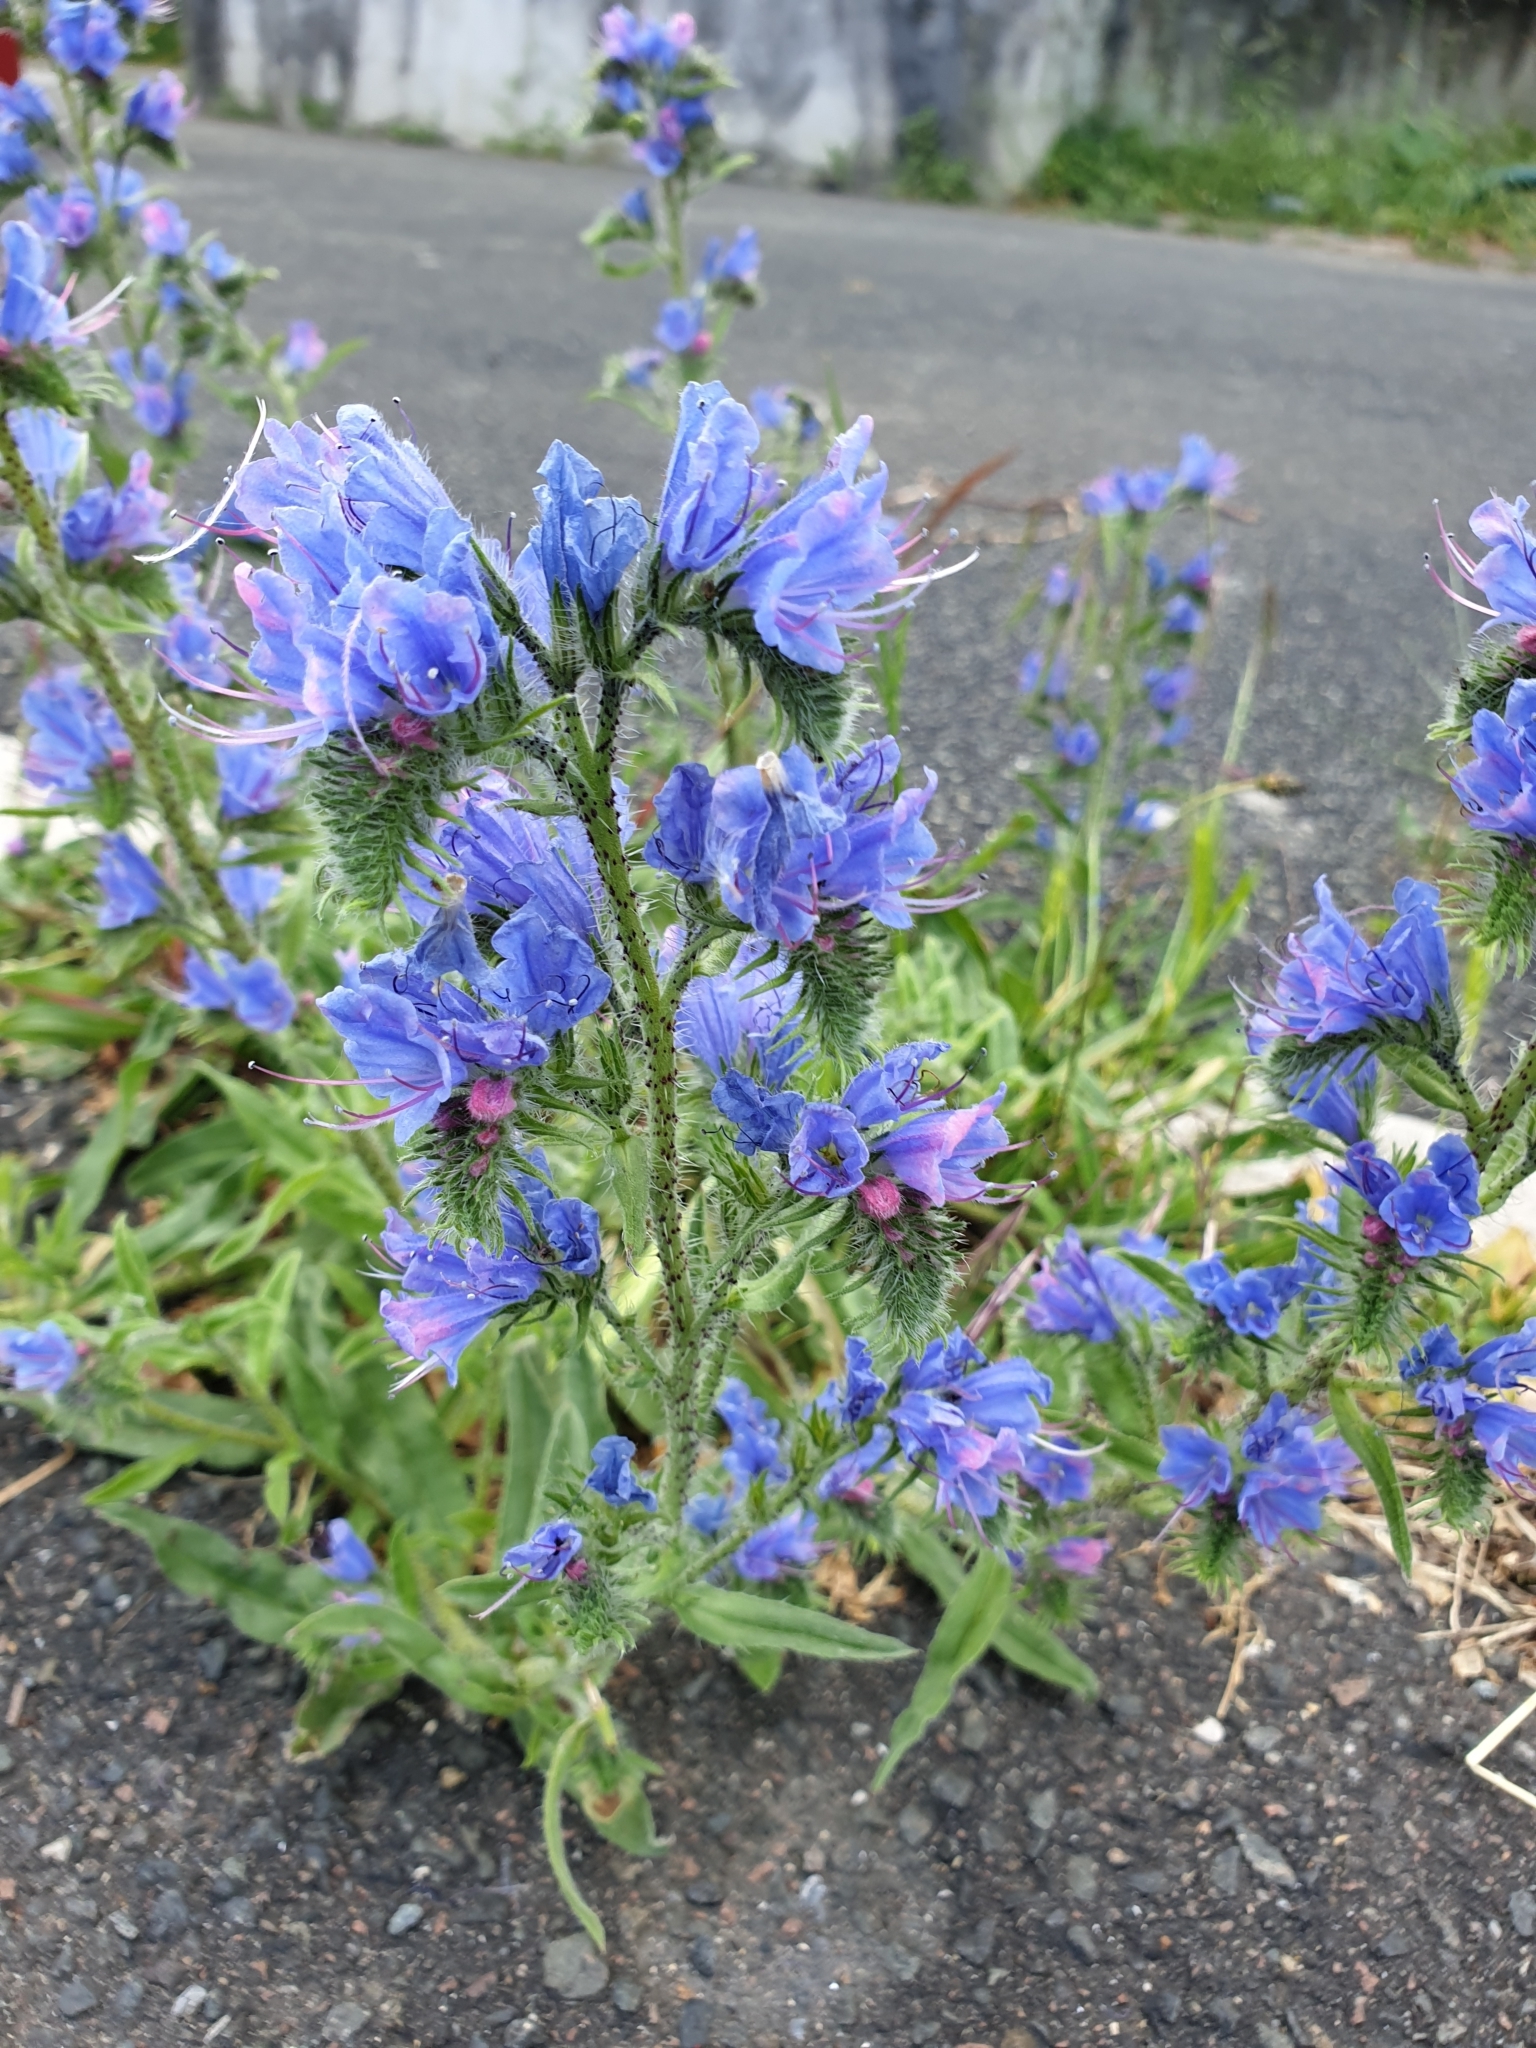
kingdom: Plantae
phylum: Tracheophyta
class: Magnoliopsida
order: Boraginales
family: Boraginaceae
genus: Echium
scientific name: Echium vulgare
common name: Common viper's bugloss
